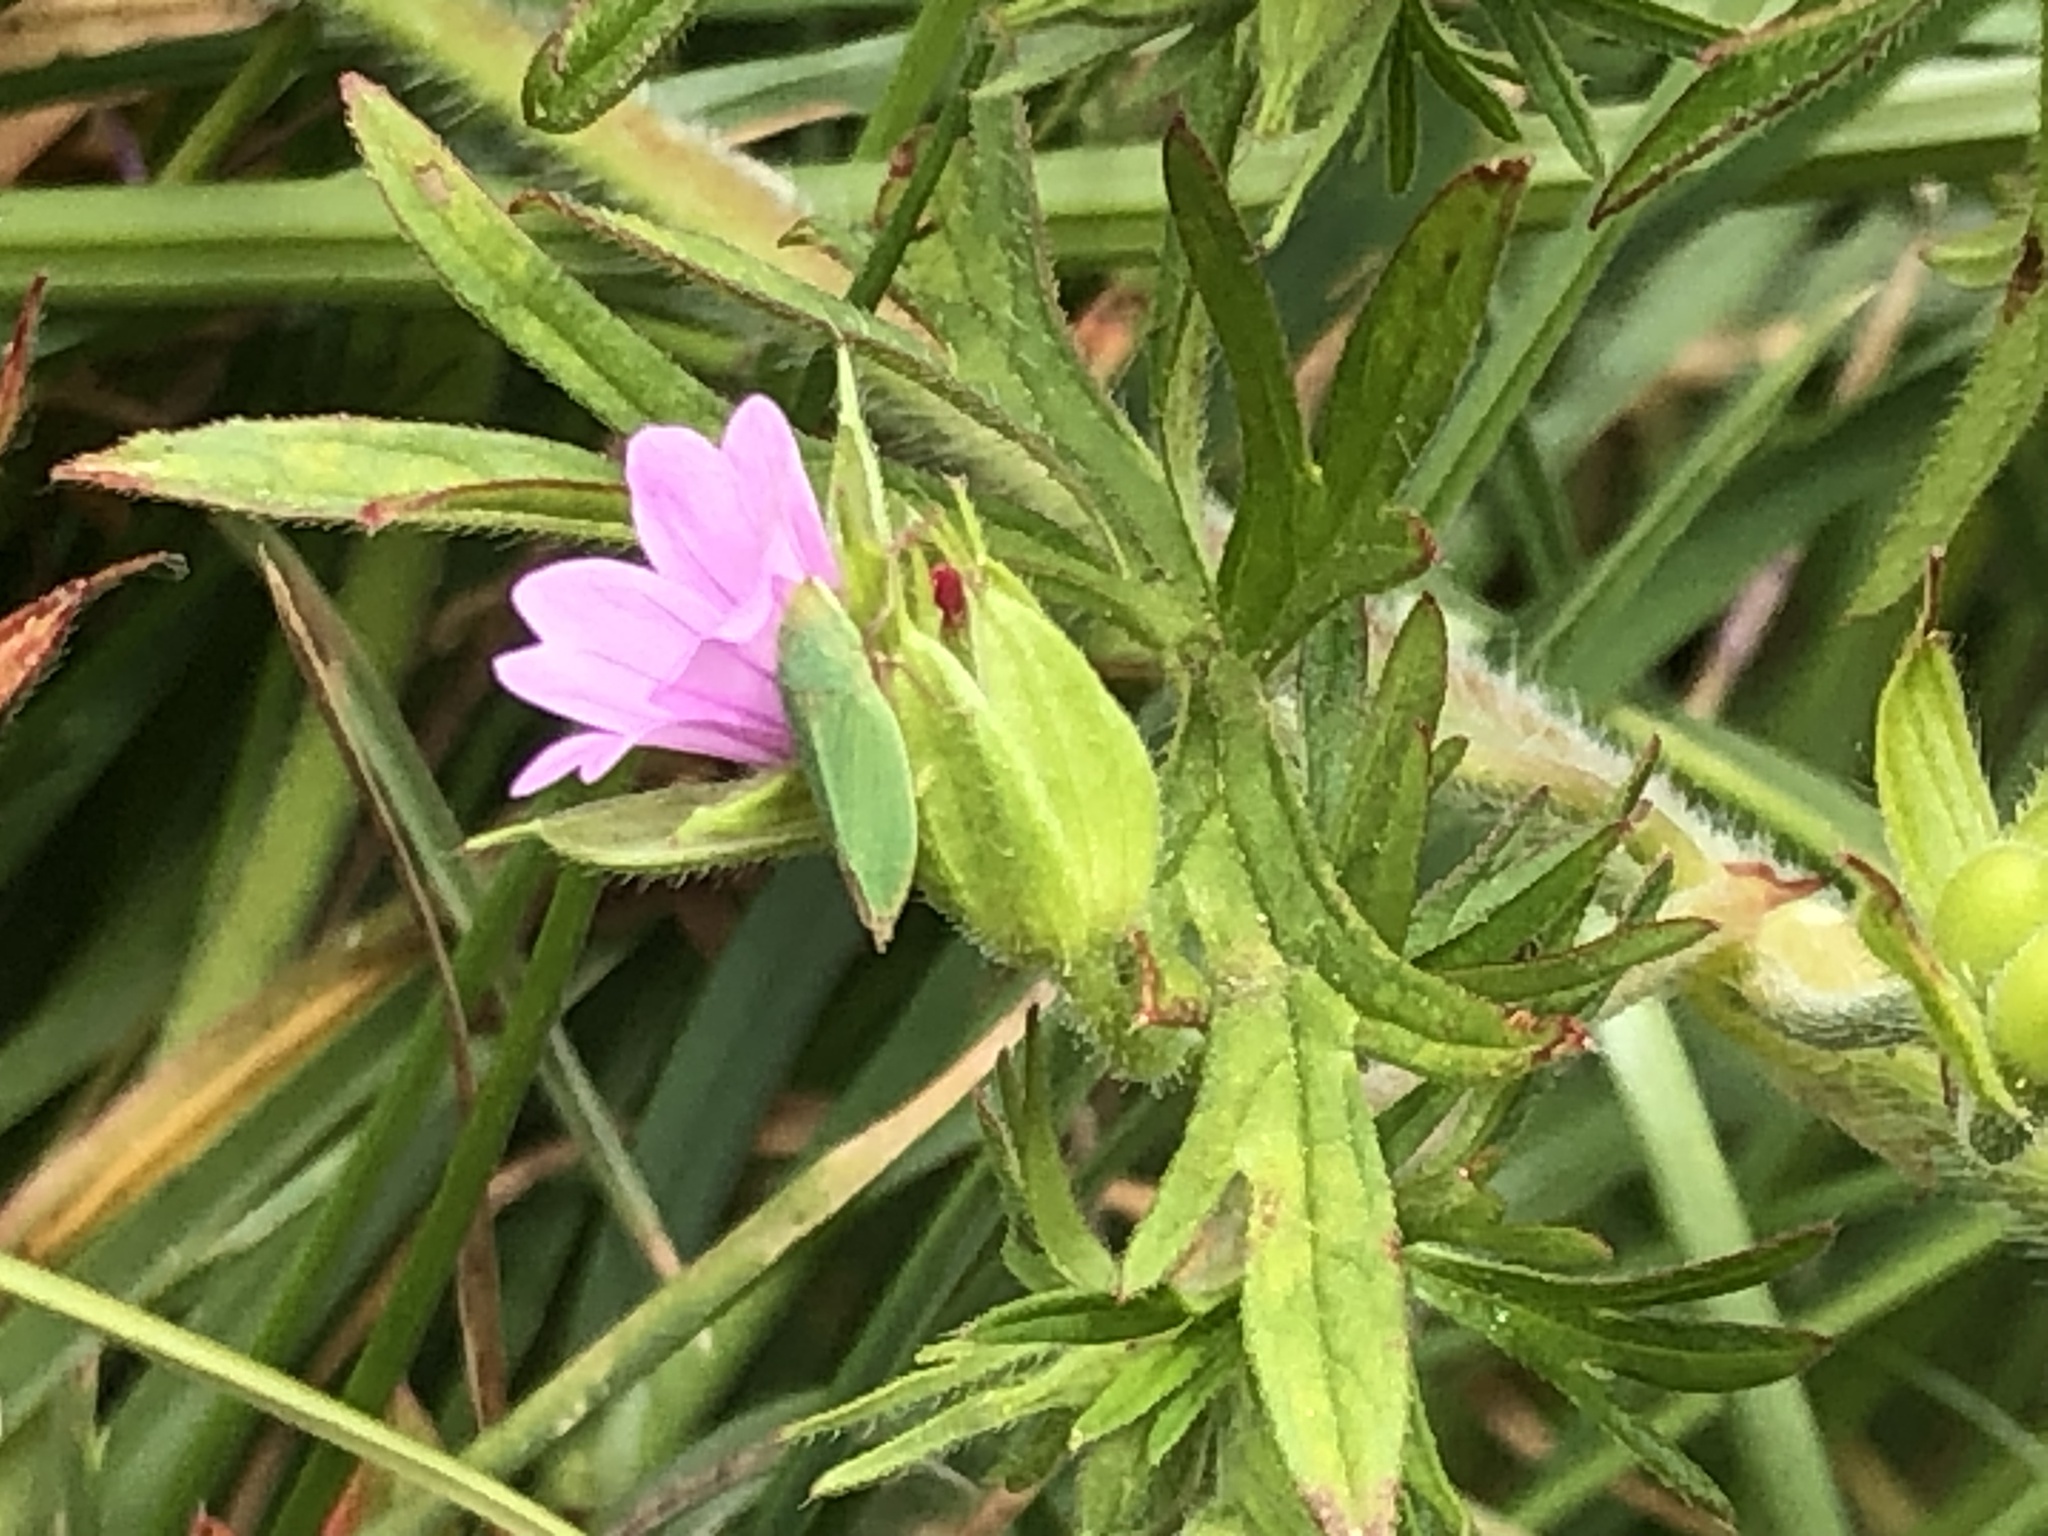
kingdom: Plantae
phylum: Tracheophyta
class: Magnoliopsida
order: Geraniales
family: Geraniaceae
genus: Geranium
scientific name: Geranium dissectum
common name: Cut-leaved crane's-bill
